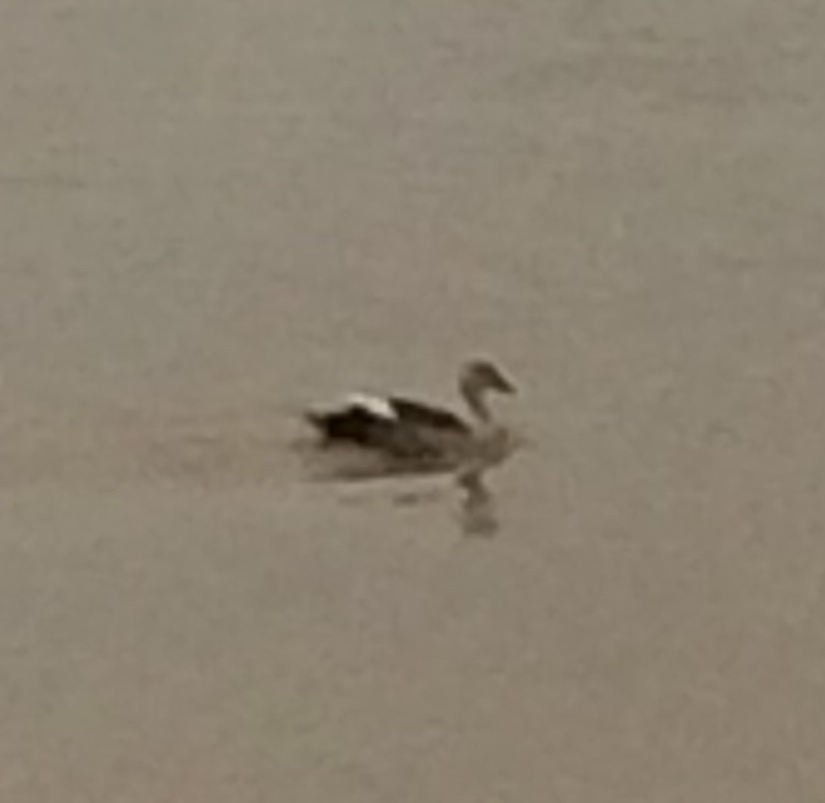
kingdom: Animalia
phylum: Chordata
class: Aves
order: Anseriformes
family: Anatidae
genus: Anas
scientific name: Anas poecilorhyncha
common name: Indian spot-billed duck
